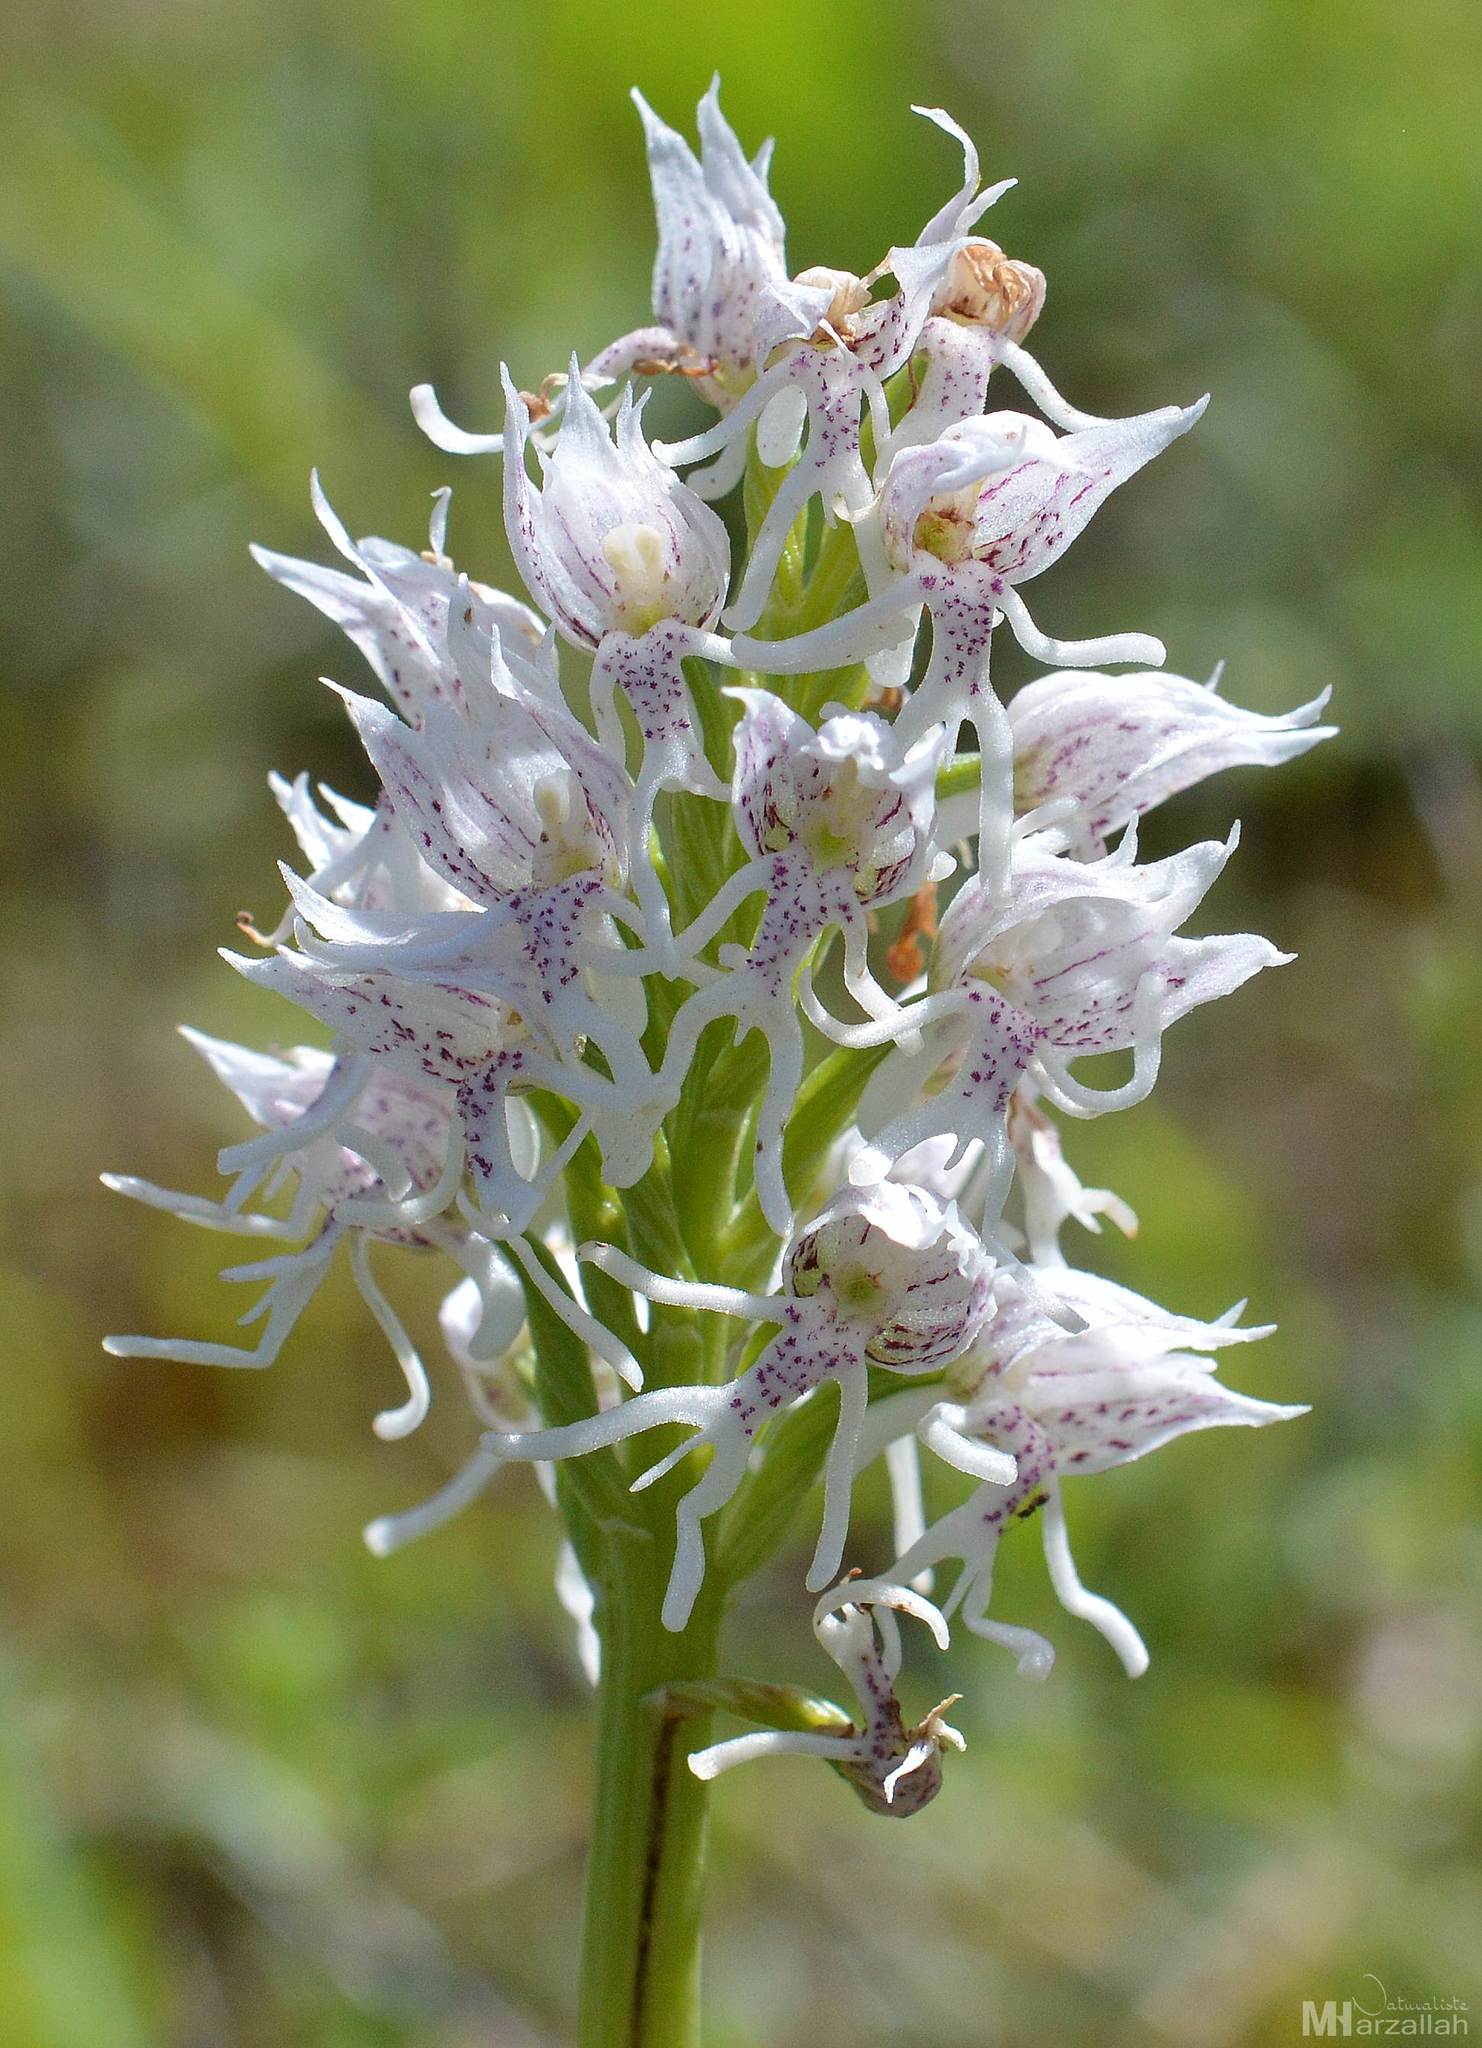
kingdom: Plantae
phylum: Tracheophyta
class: Liliopsida
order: Asparagales
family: Orchidaceae
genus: Orchis
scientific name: Orchis simia
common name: Monkey orchid
